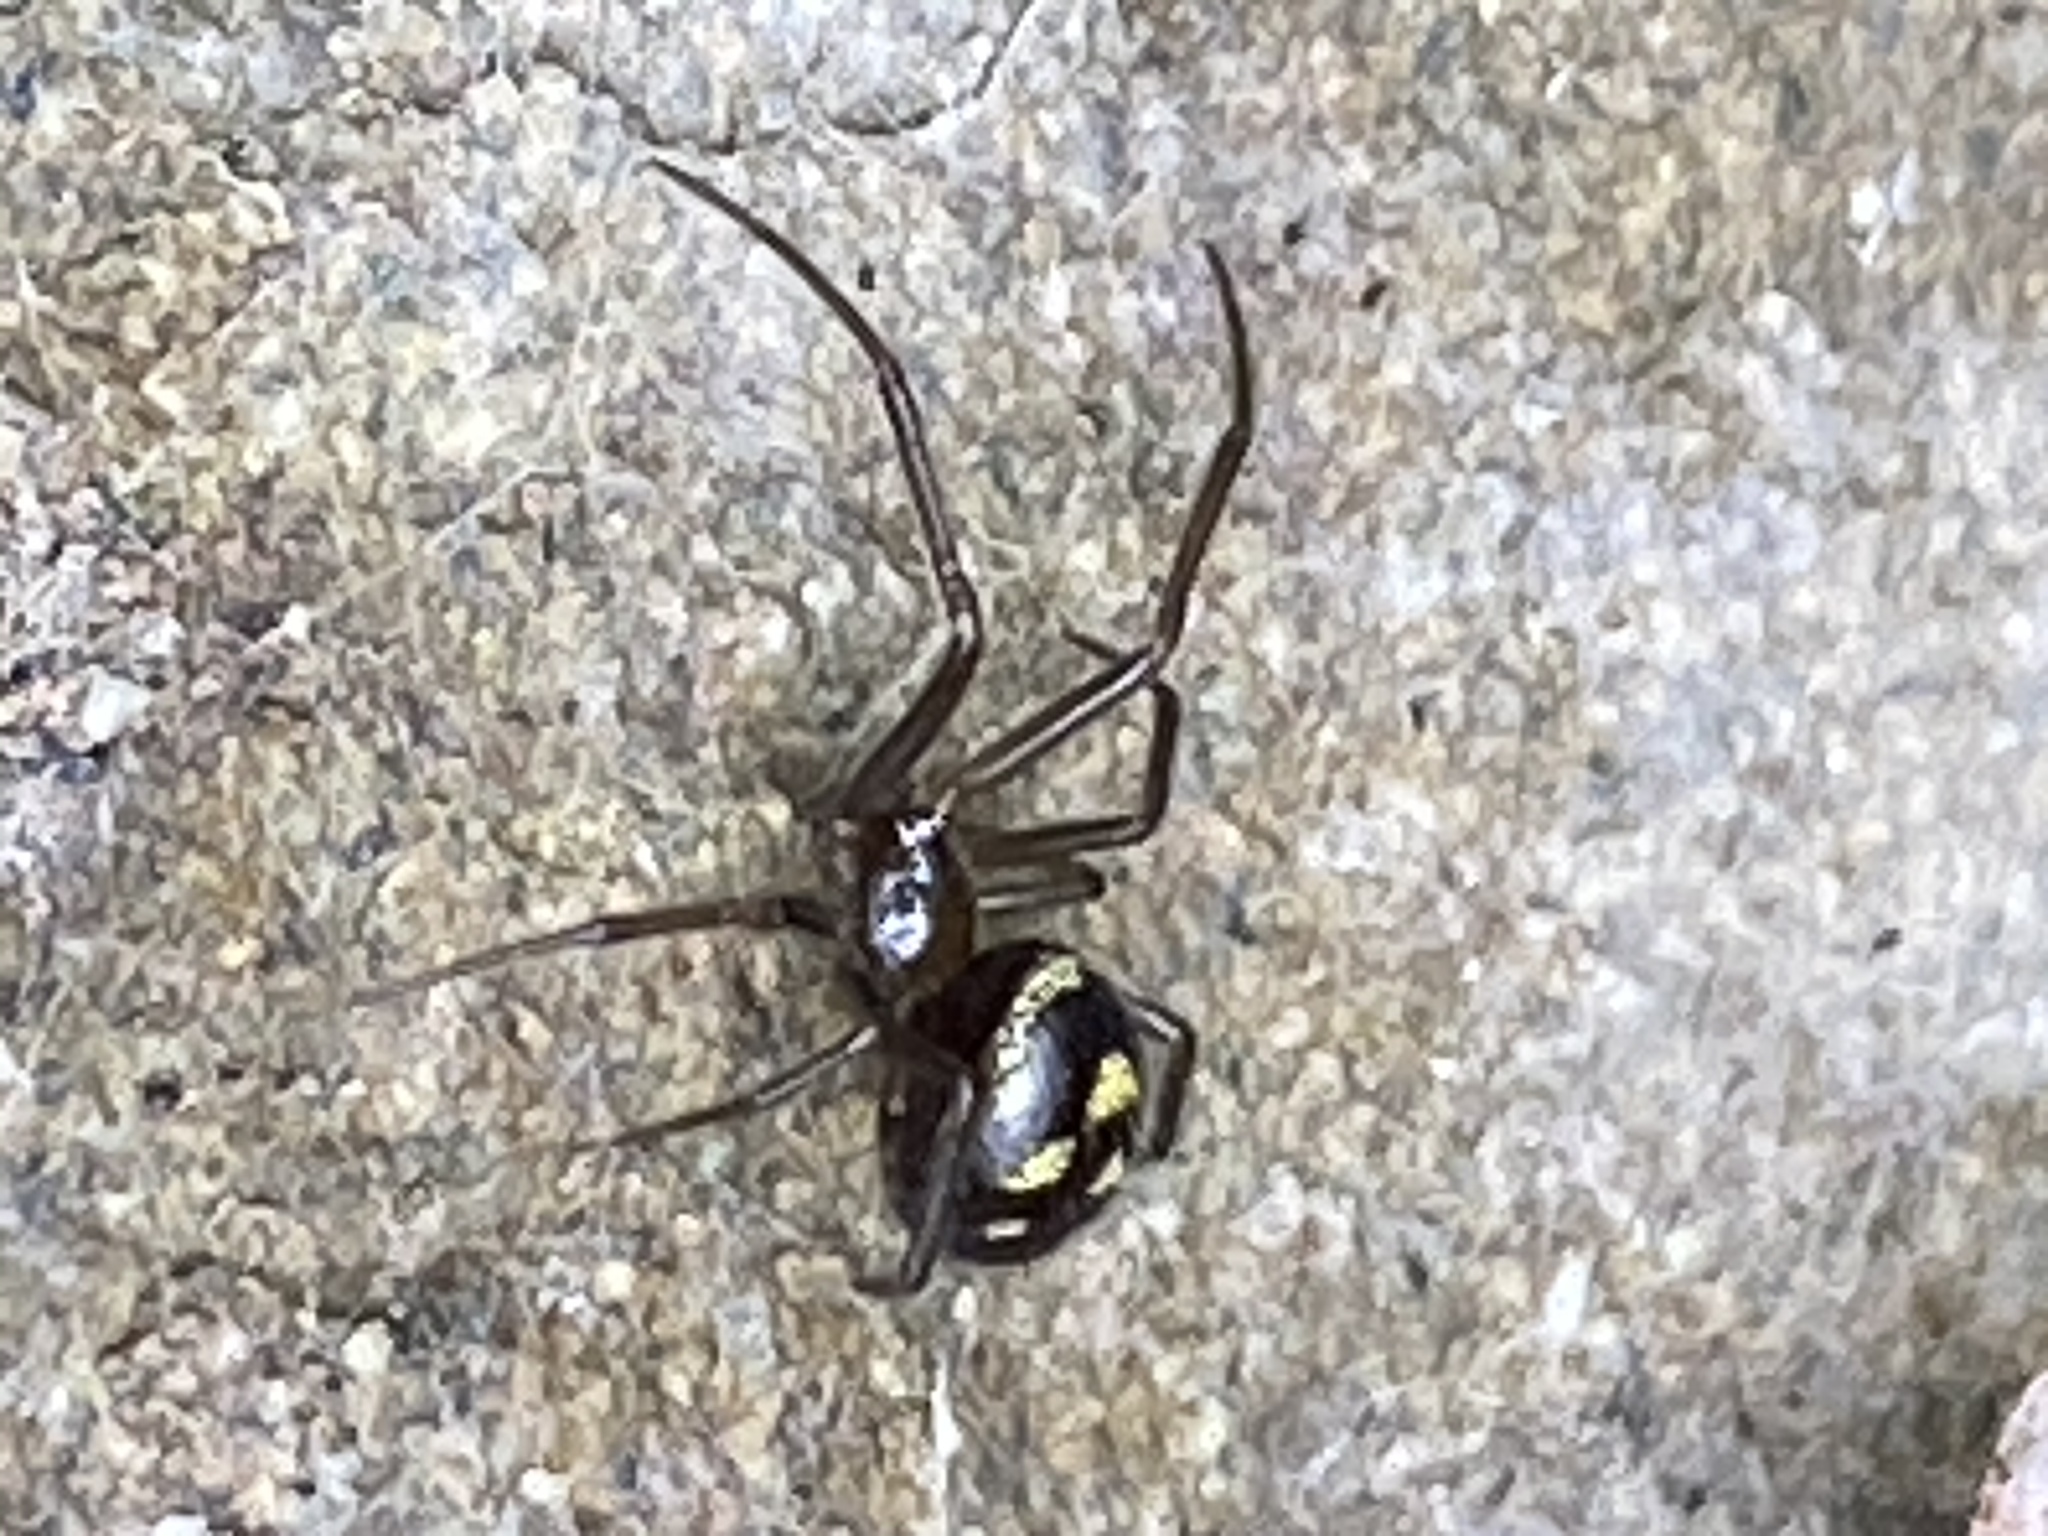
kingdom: Animalia
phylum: Arthropoda
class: Arachnida
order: Araneae
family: Theridiidae
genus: Steatoda
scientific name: Steatoda grossa
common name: False black widow
